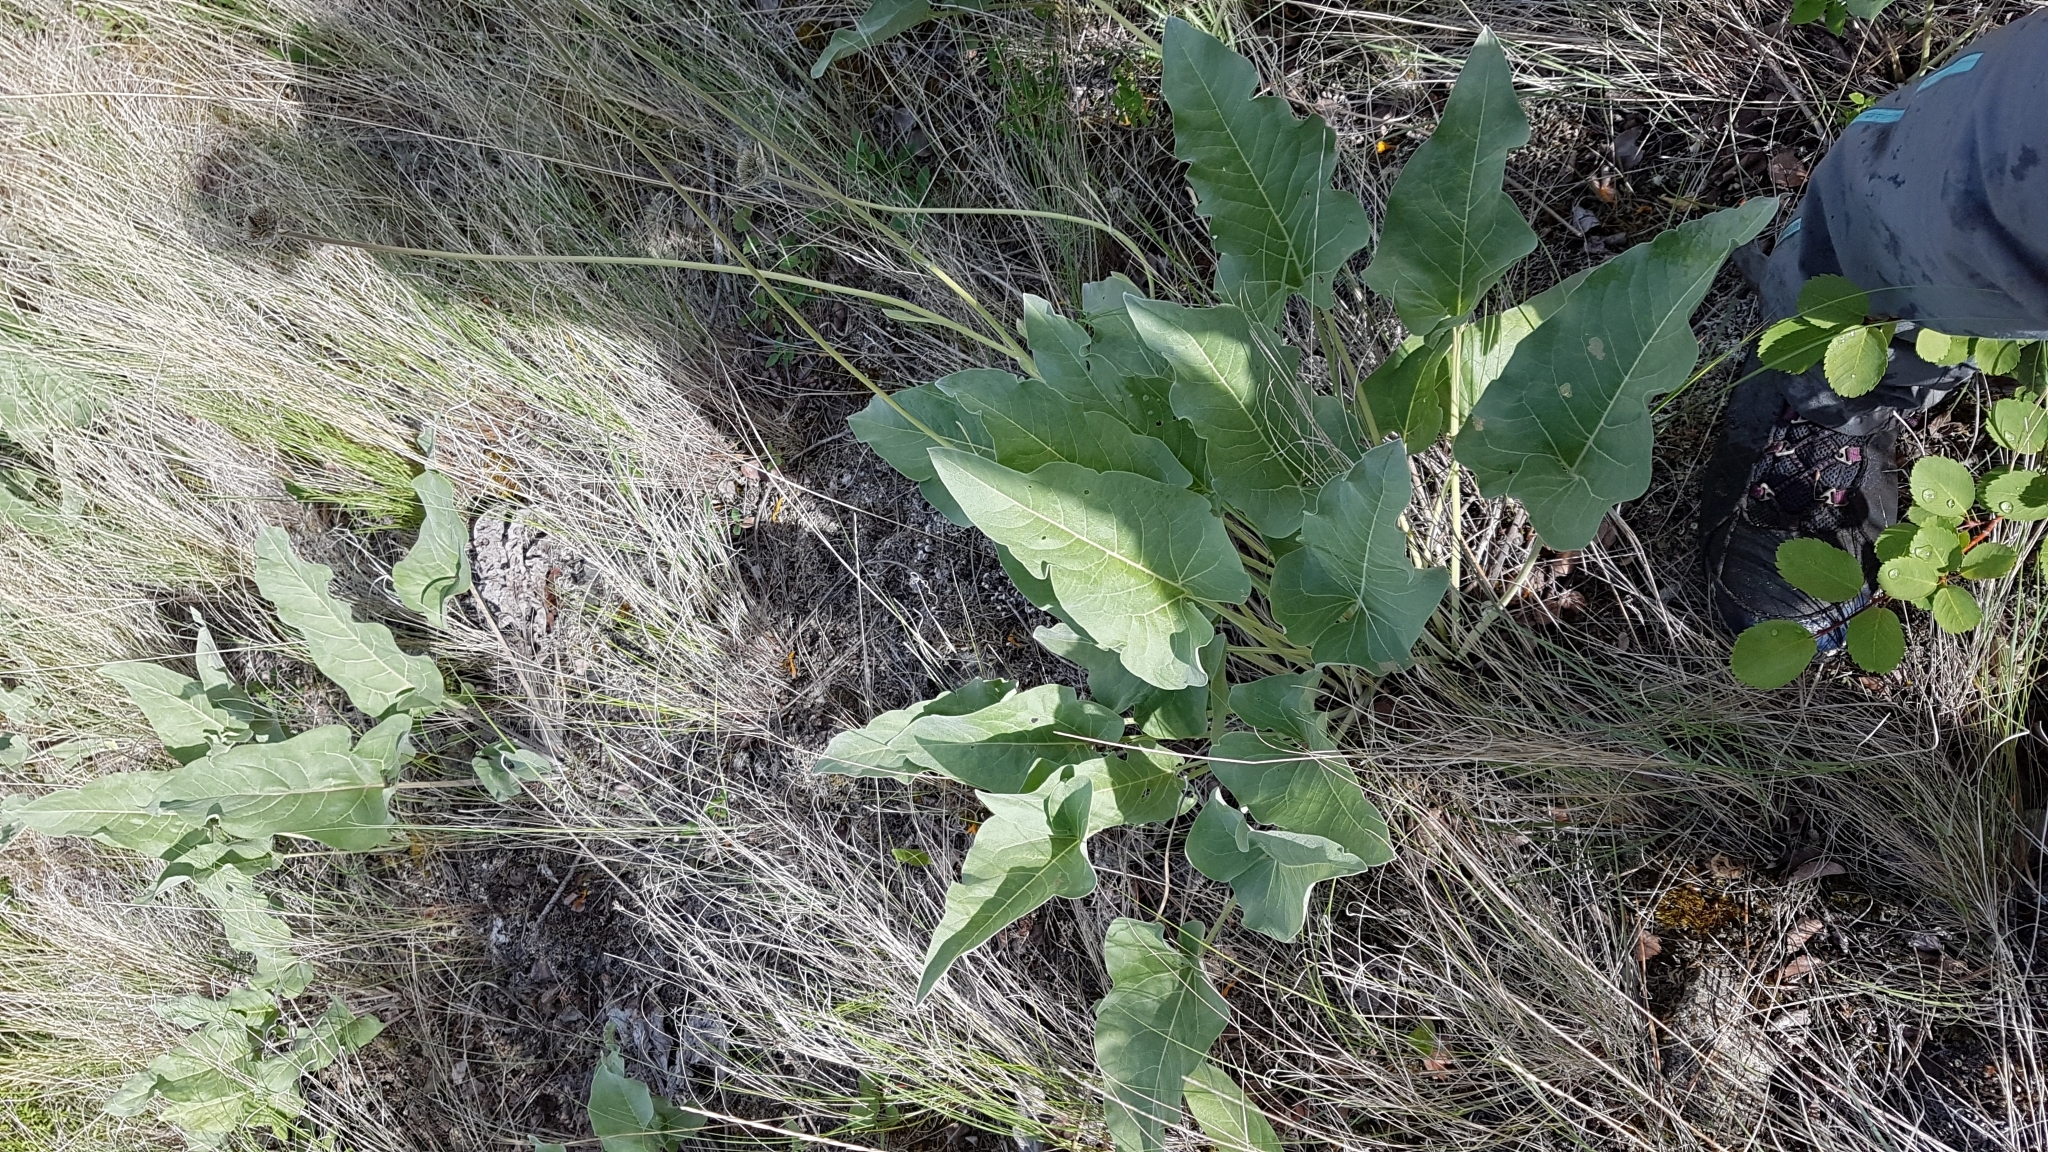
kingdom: Plantae
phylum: Tracheophyta
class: Magnoliopsida
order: Asterales
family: Asteraceae
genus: Wyethia
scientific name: Wyethia sagittata
